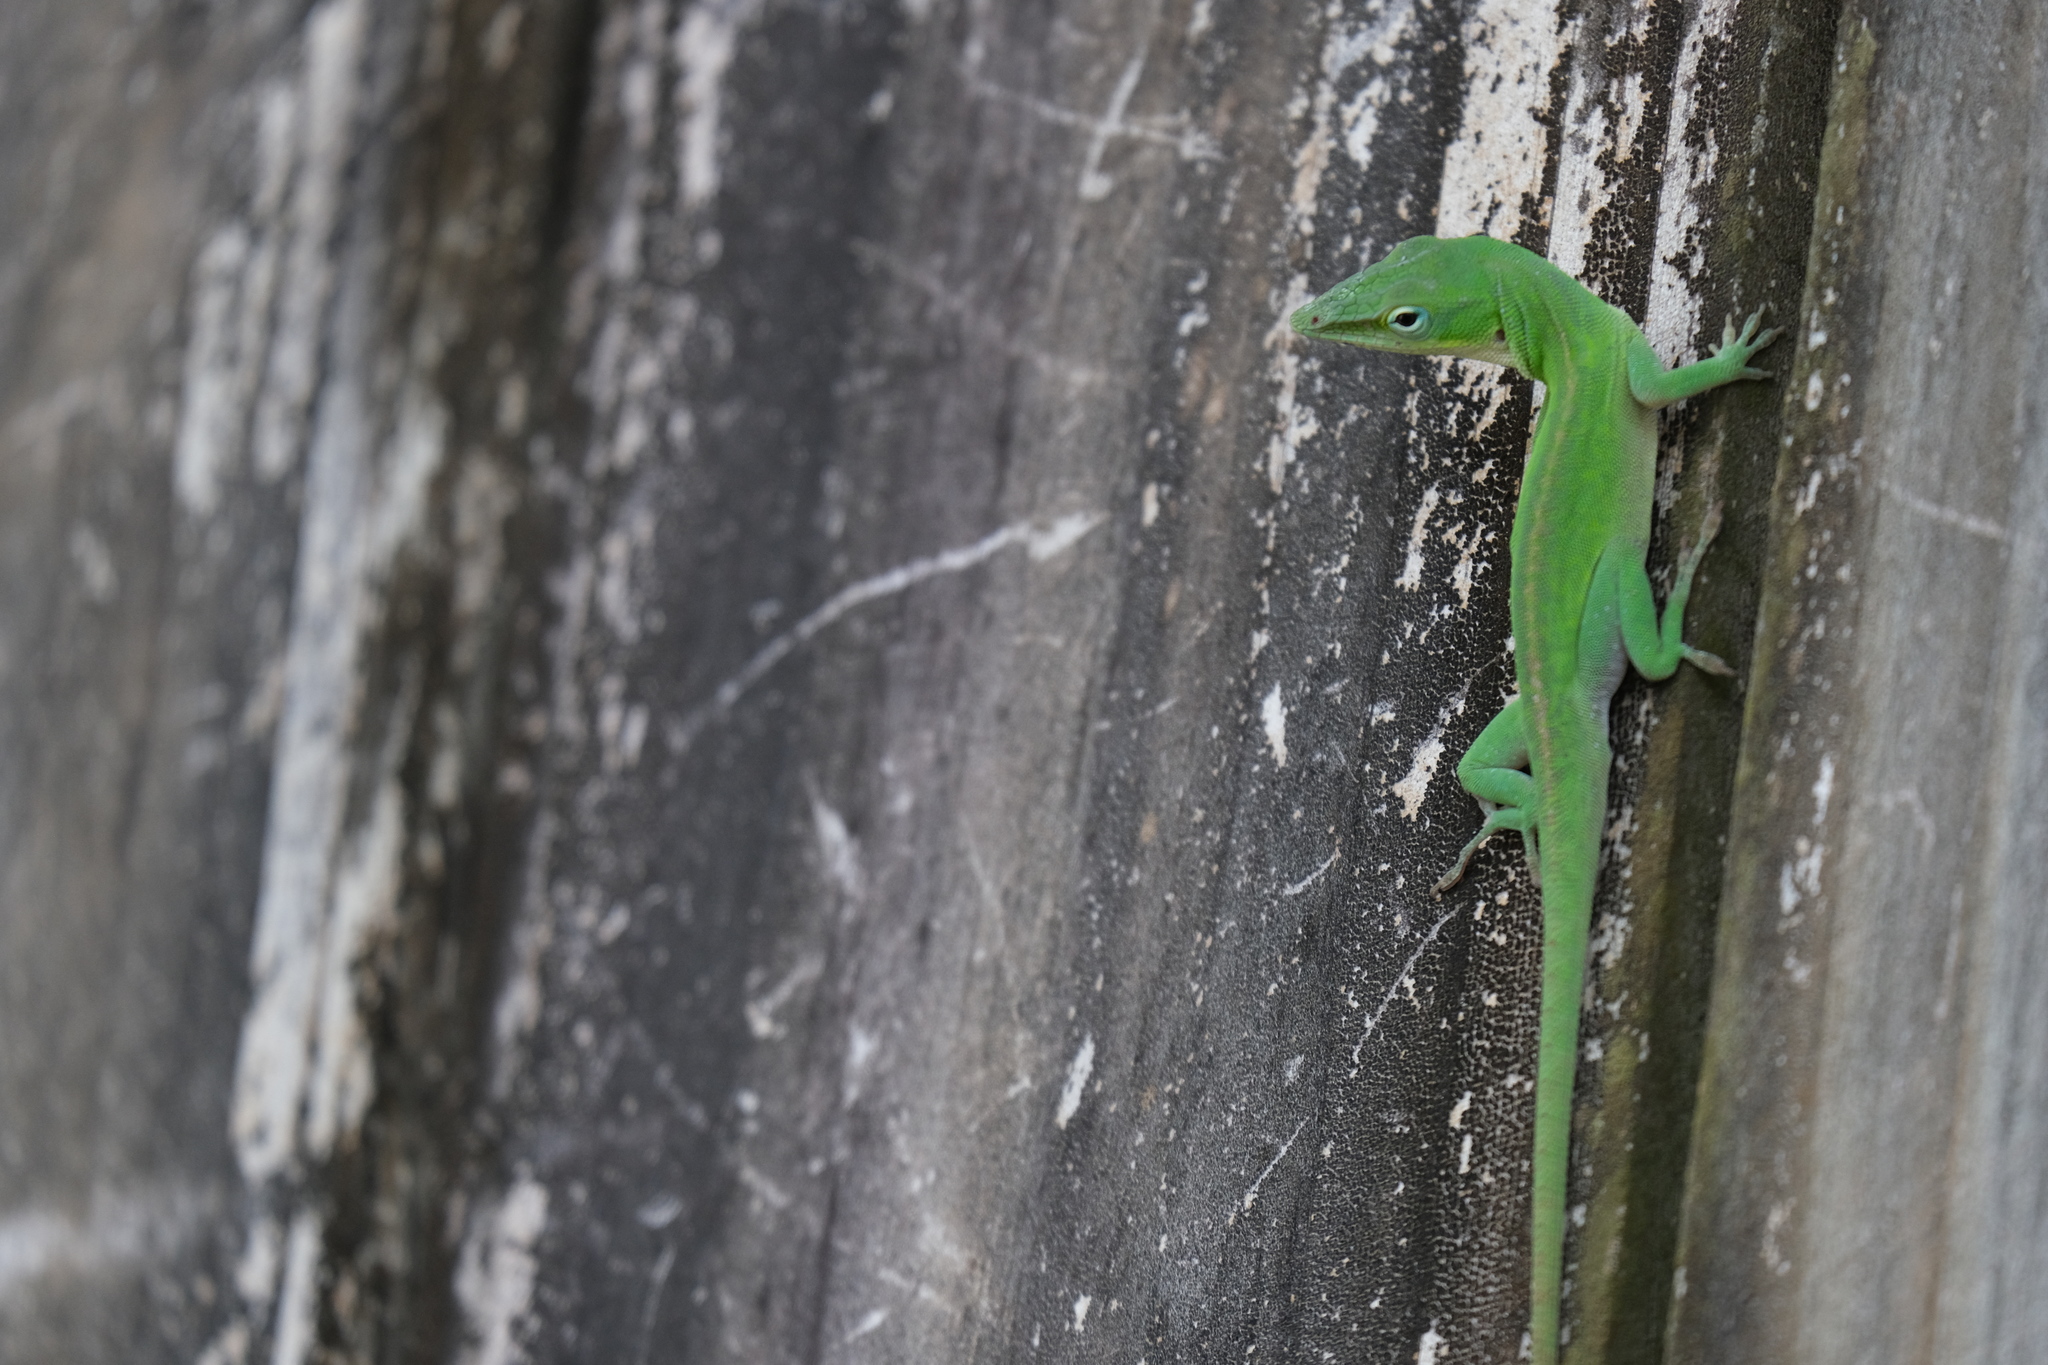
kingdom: Animalia
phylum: Chordata
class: Squamata
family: Dactyloidae
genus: Anolis
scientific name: Anolis carolinensis
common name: Green anole
